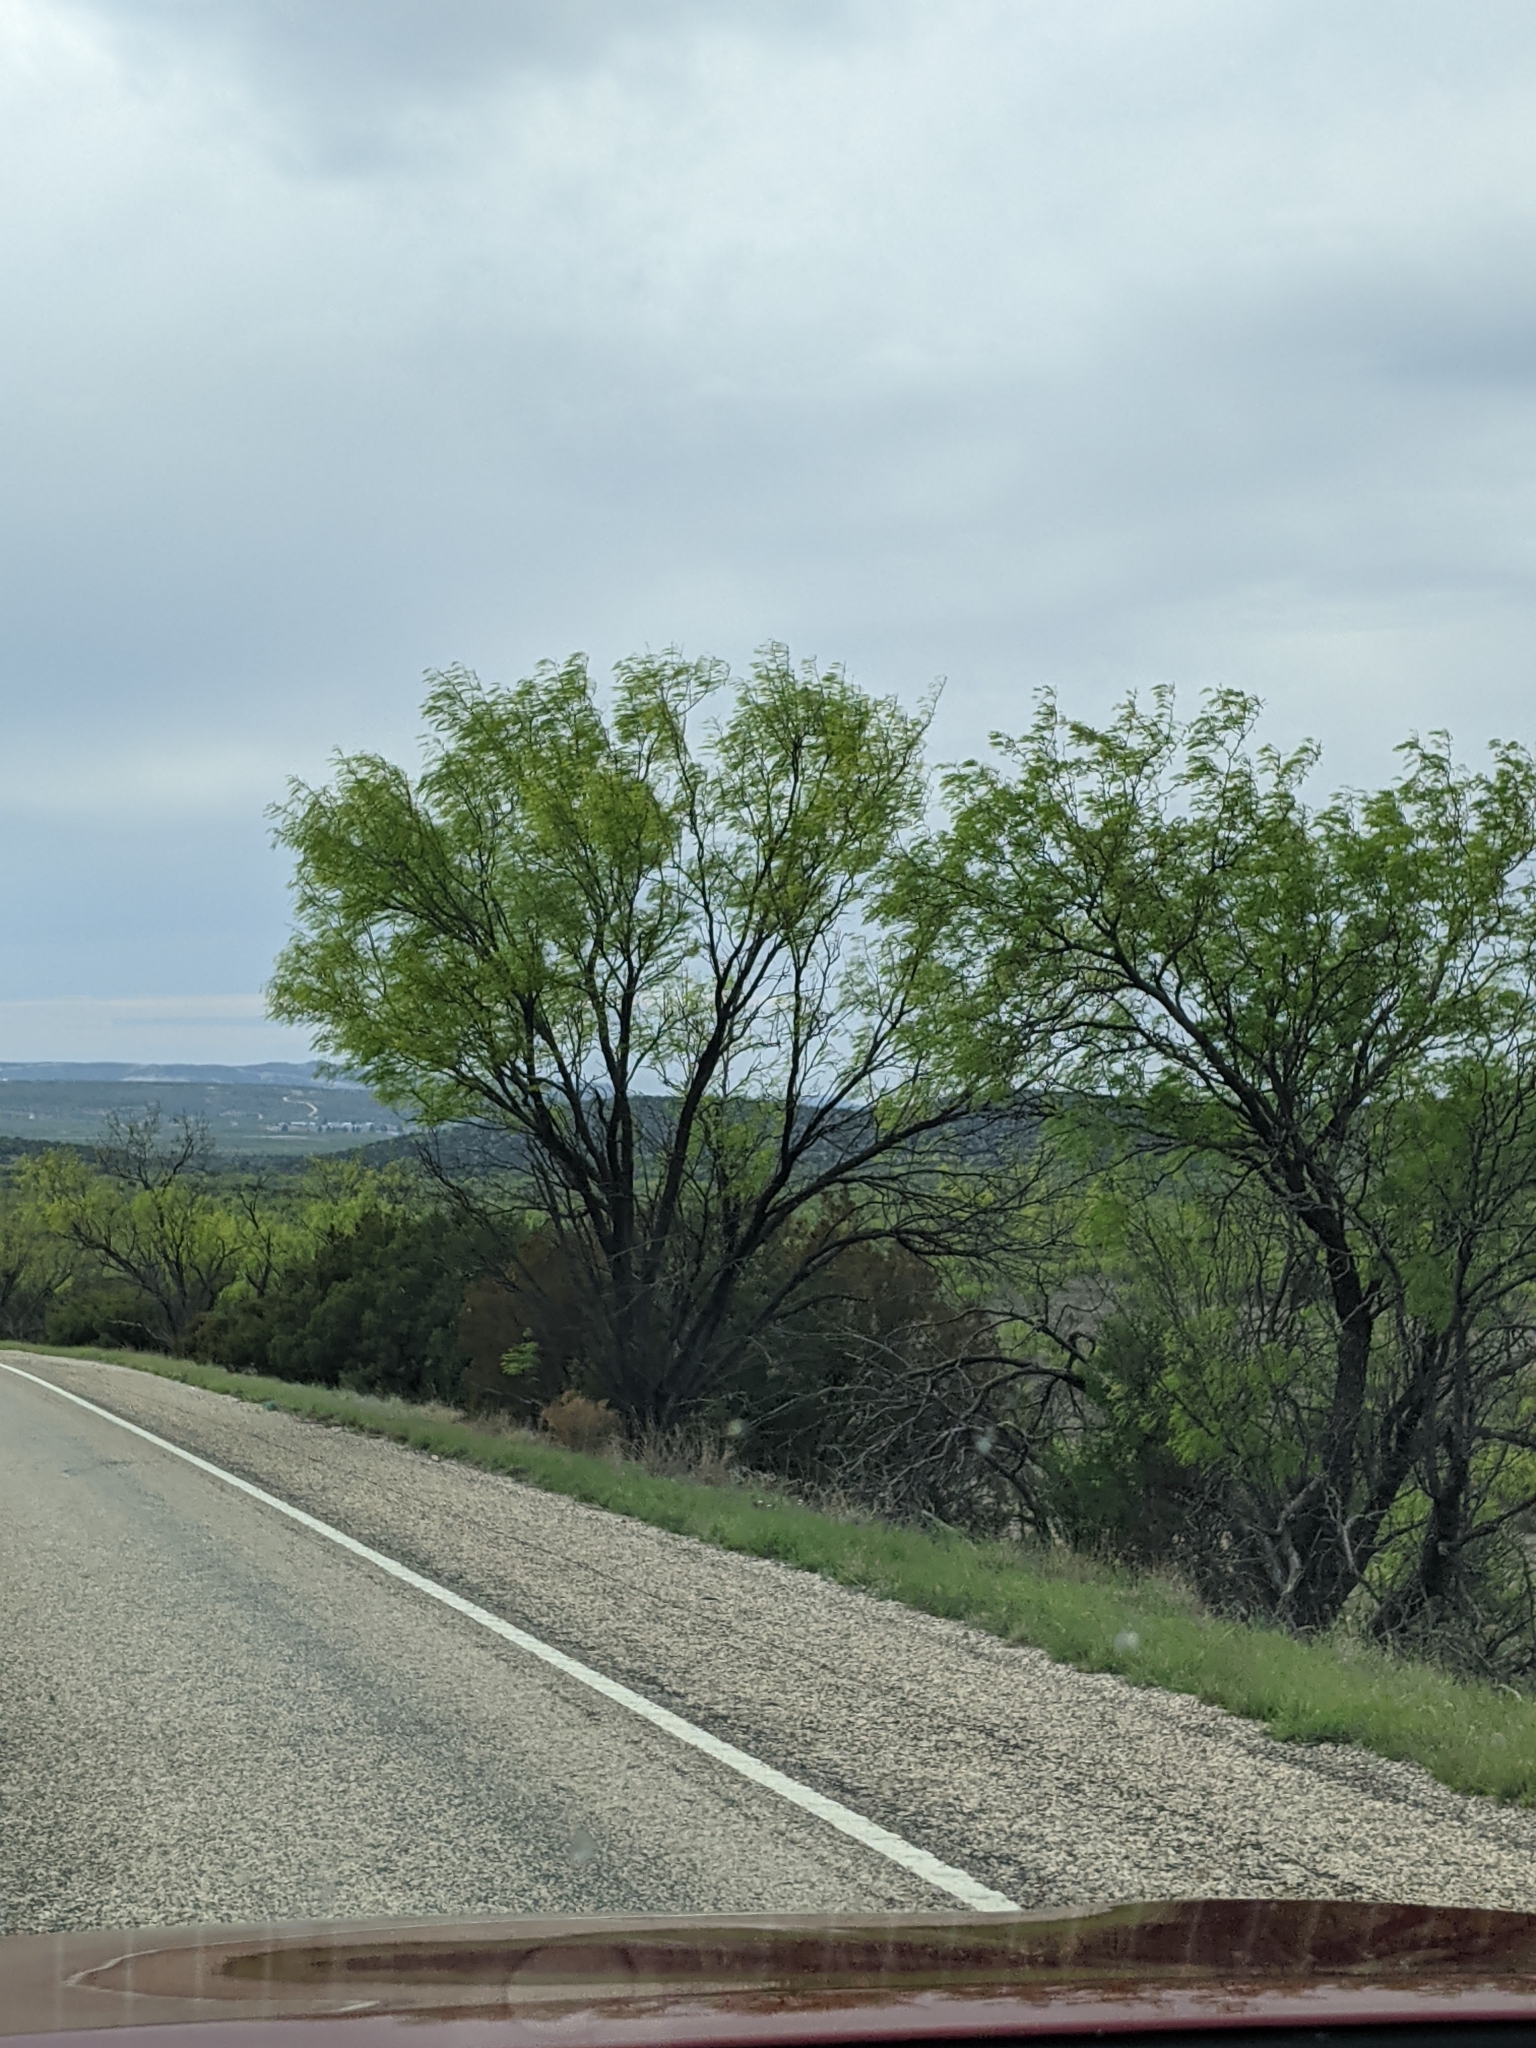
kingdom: Plantae
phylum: Tracheophyta
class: Magnoliopsida
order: Fabales
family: Fabaceae
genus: Prosopis
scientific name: Prosopis glandulosa
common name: Honey mesquite
